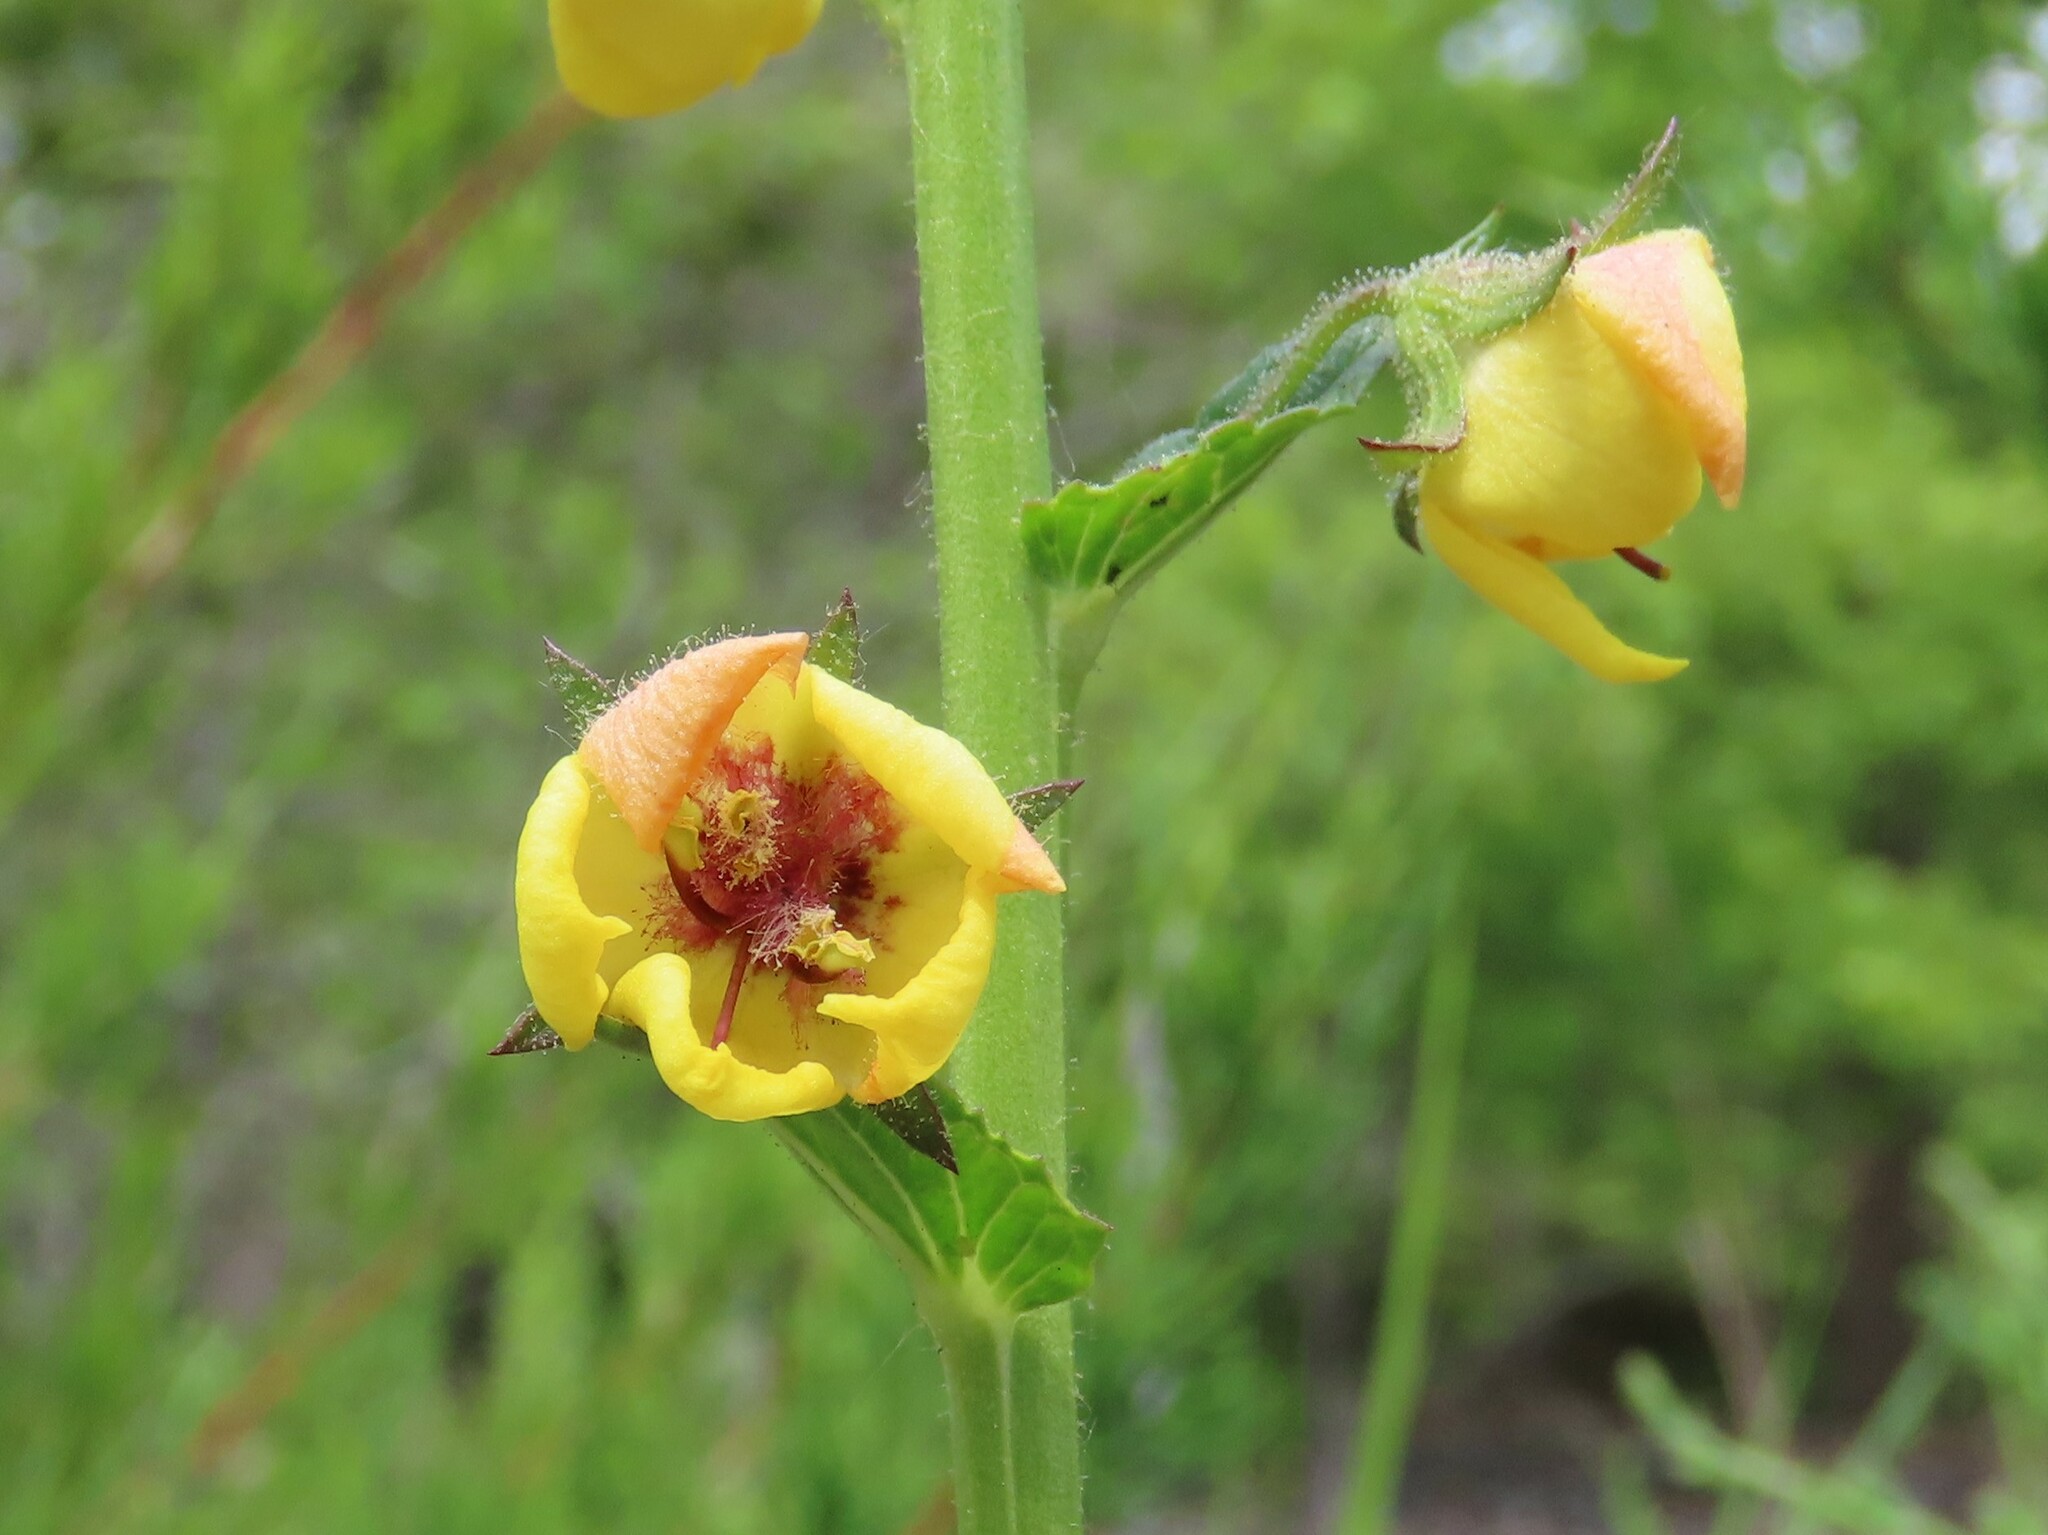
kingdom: Plantae
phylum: Tracheophyta
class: Magnoliopsida
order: Lamiales
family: Scrophulariaceae
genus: Verbascum
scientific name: Verbascum blattaria
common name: Moth mullein
